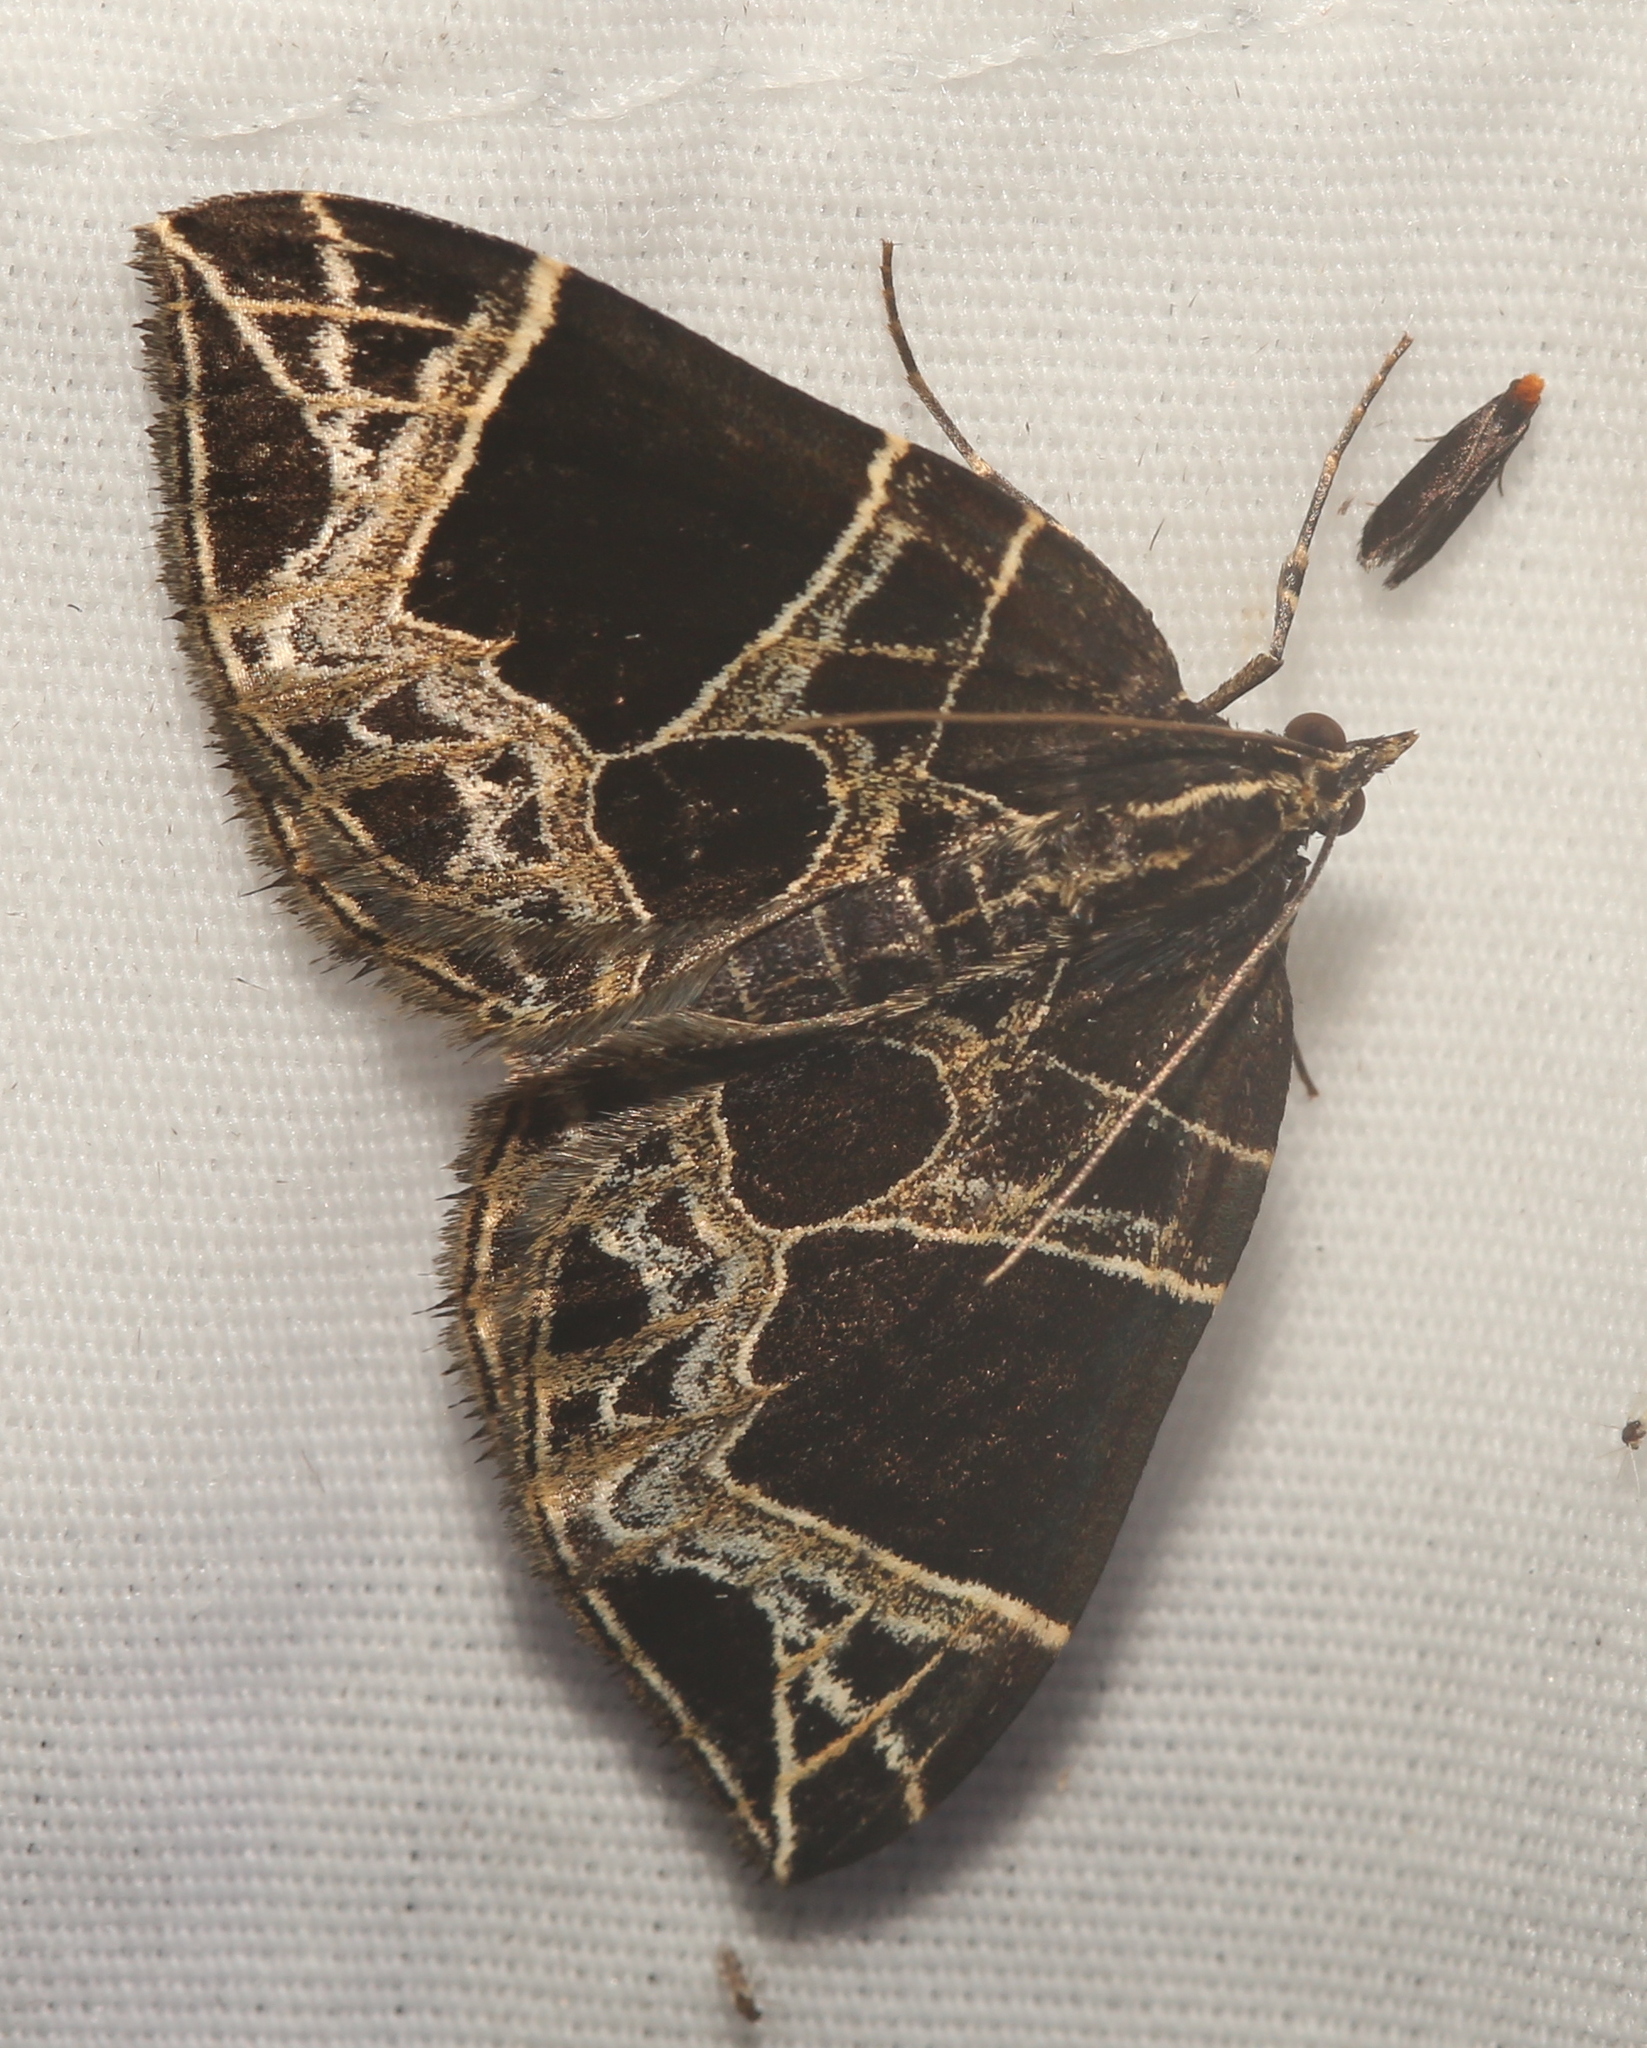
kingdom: Animalia
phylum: Arthropoda
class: Insecta
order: Lepidoptera
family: Geometridae
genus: Ecliptopera
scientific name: Ecliptopera atricolorata
